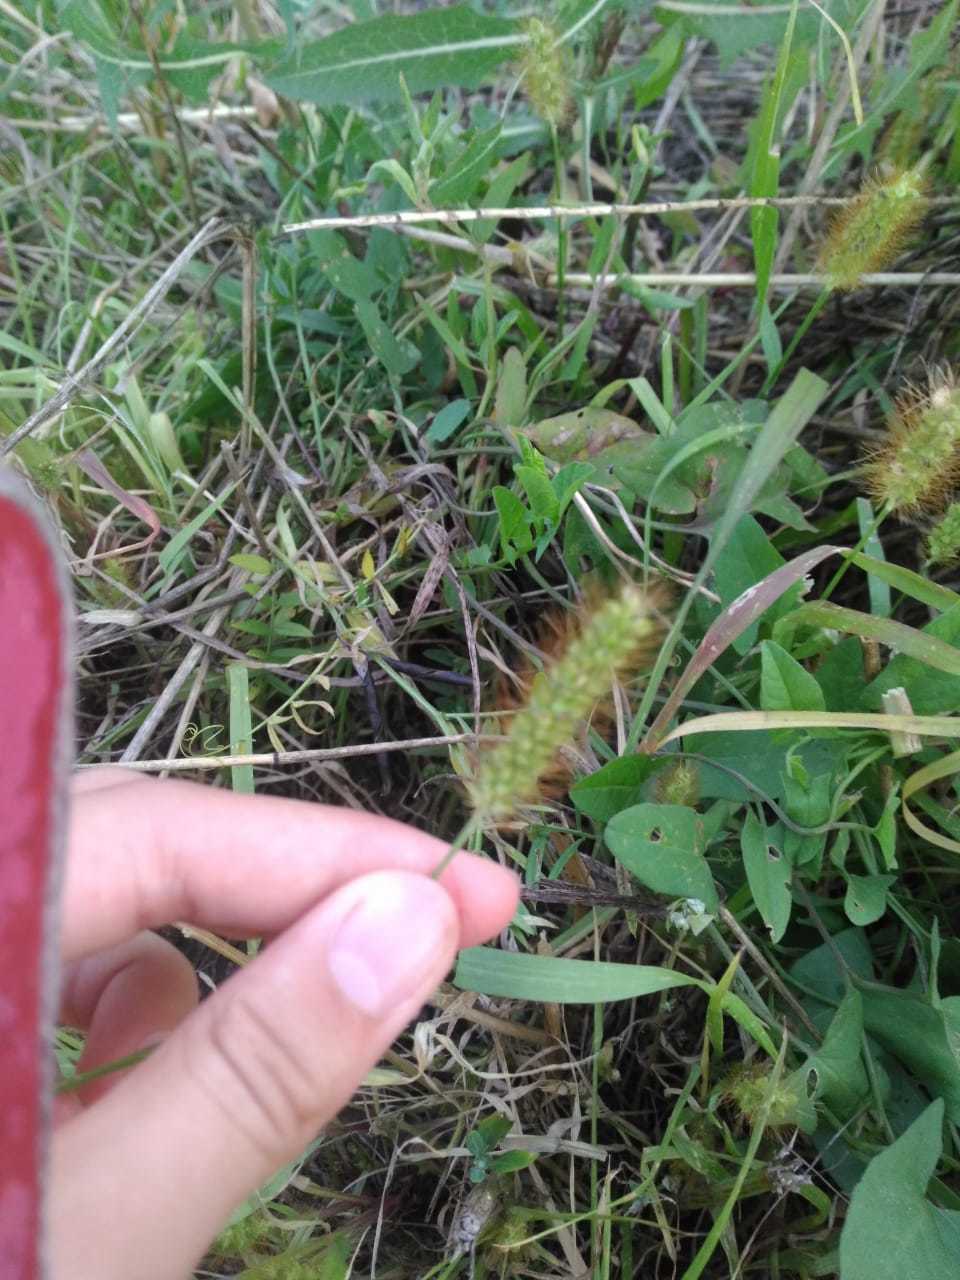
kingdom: Plantae
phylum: Tracheophyta
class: Liliopsida
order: Poales
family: Poaceae
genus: Setaria
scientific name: Setaria pumila
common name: Yellow bristle-grass
